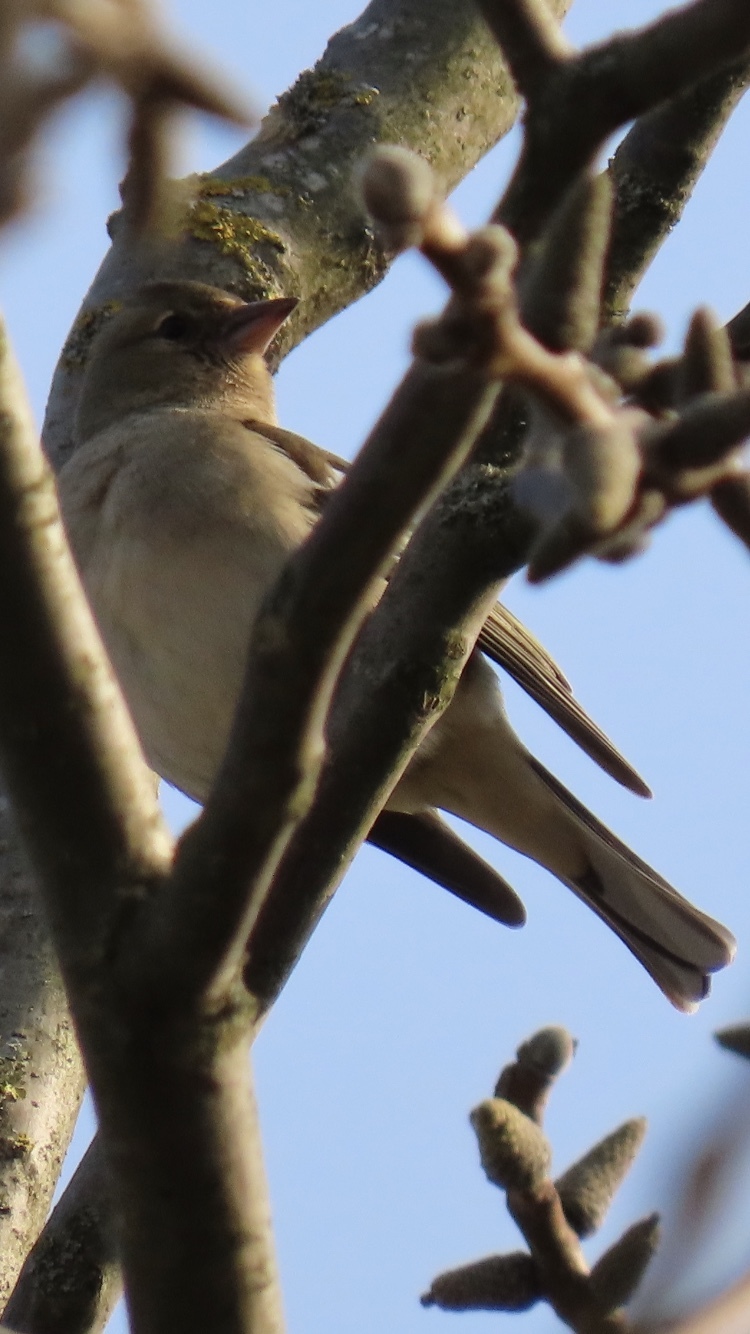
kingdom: Animalia
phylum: Chordata
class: Aves
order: Passeriformes
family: Fringillidae
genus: Fringilla
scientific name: Fringilla coelebs
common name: Common chaffinch
